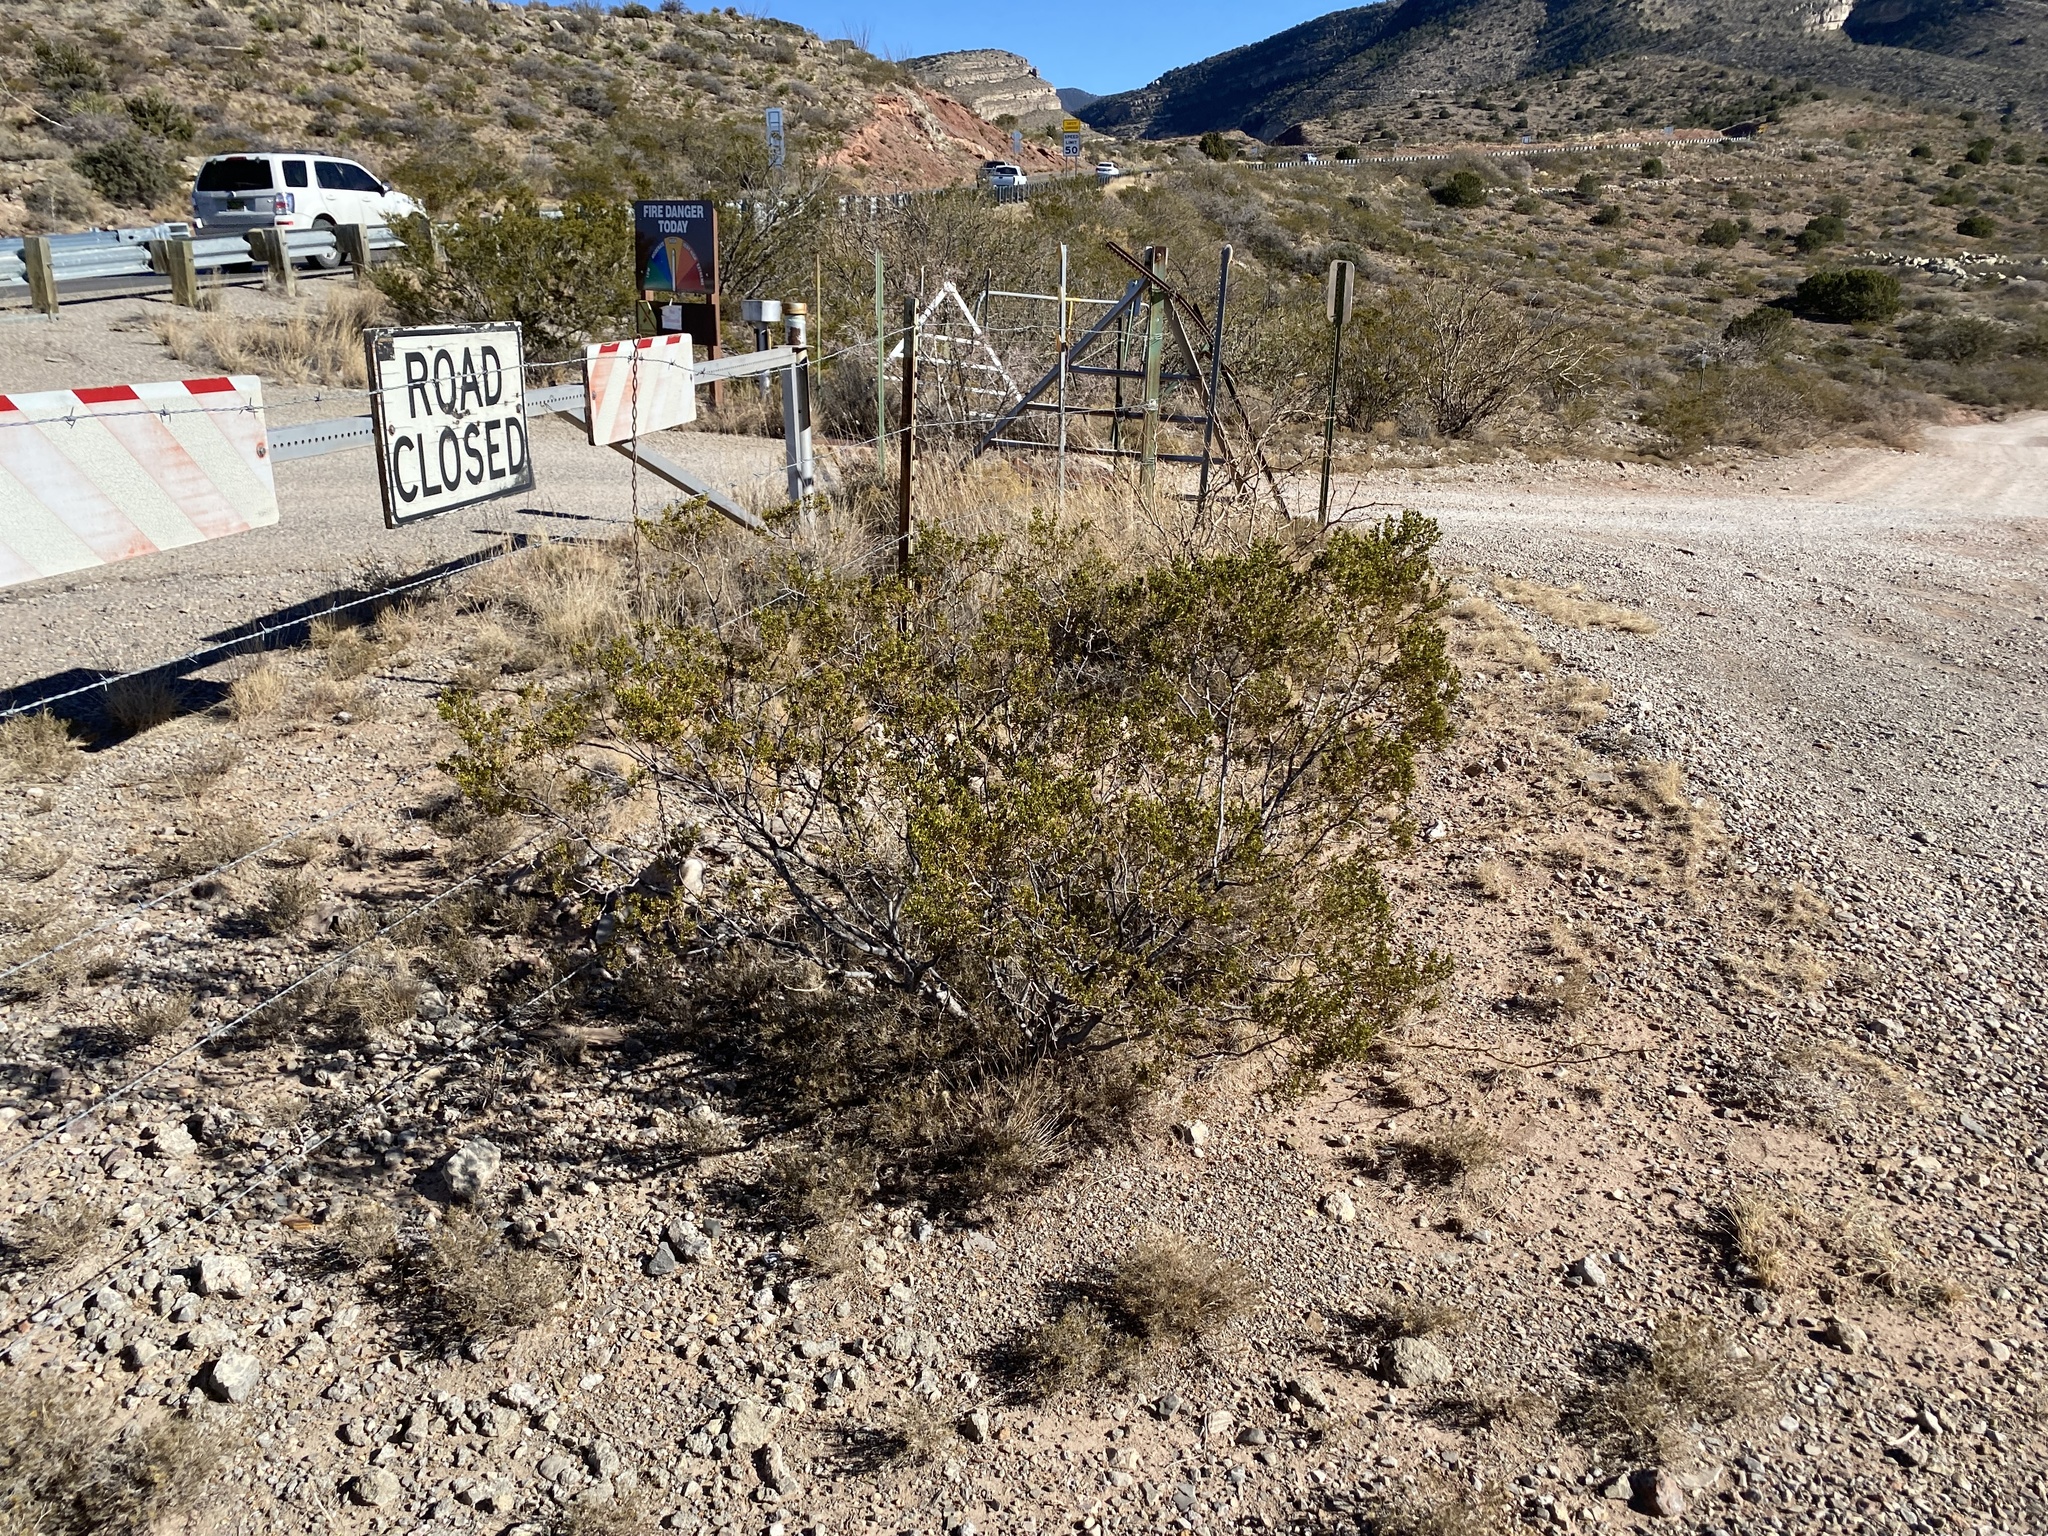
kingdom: Plantae
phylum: Tracheophyta
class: Magnoliopsida
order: Zygophyllales
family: Zygophyllaceae
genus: Larrea
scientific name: Larrea tridentata
